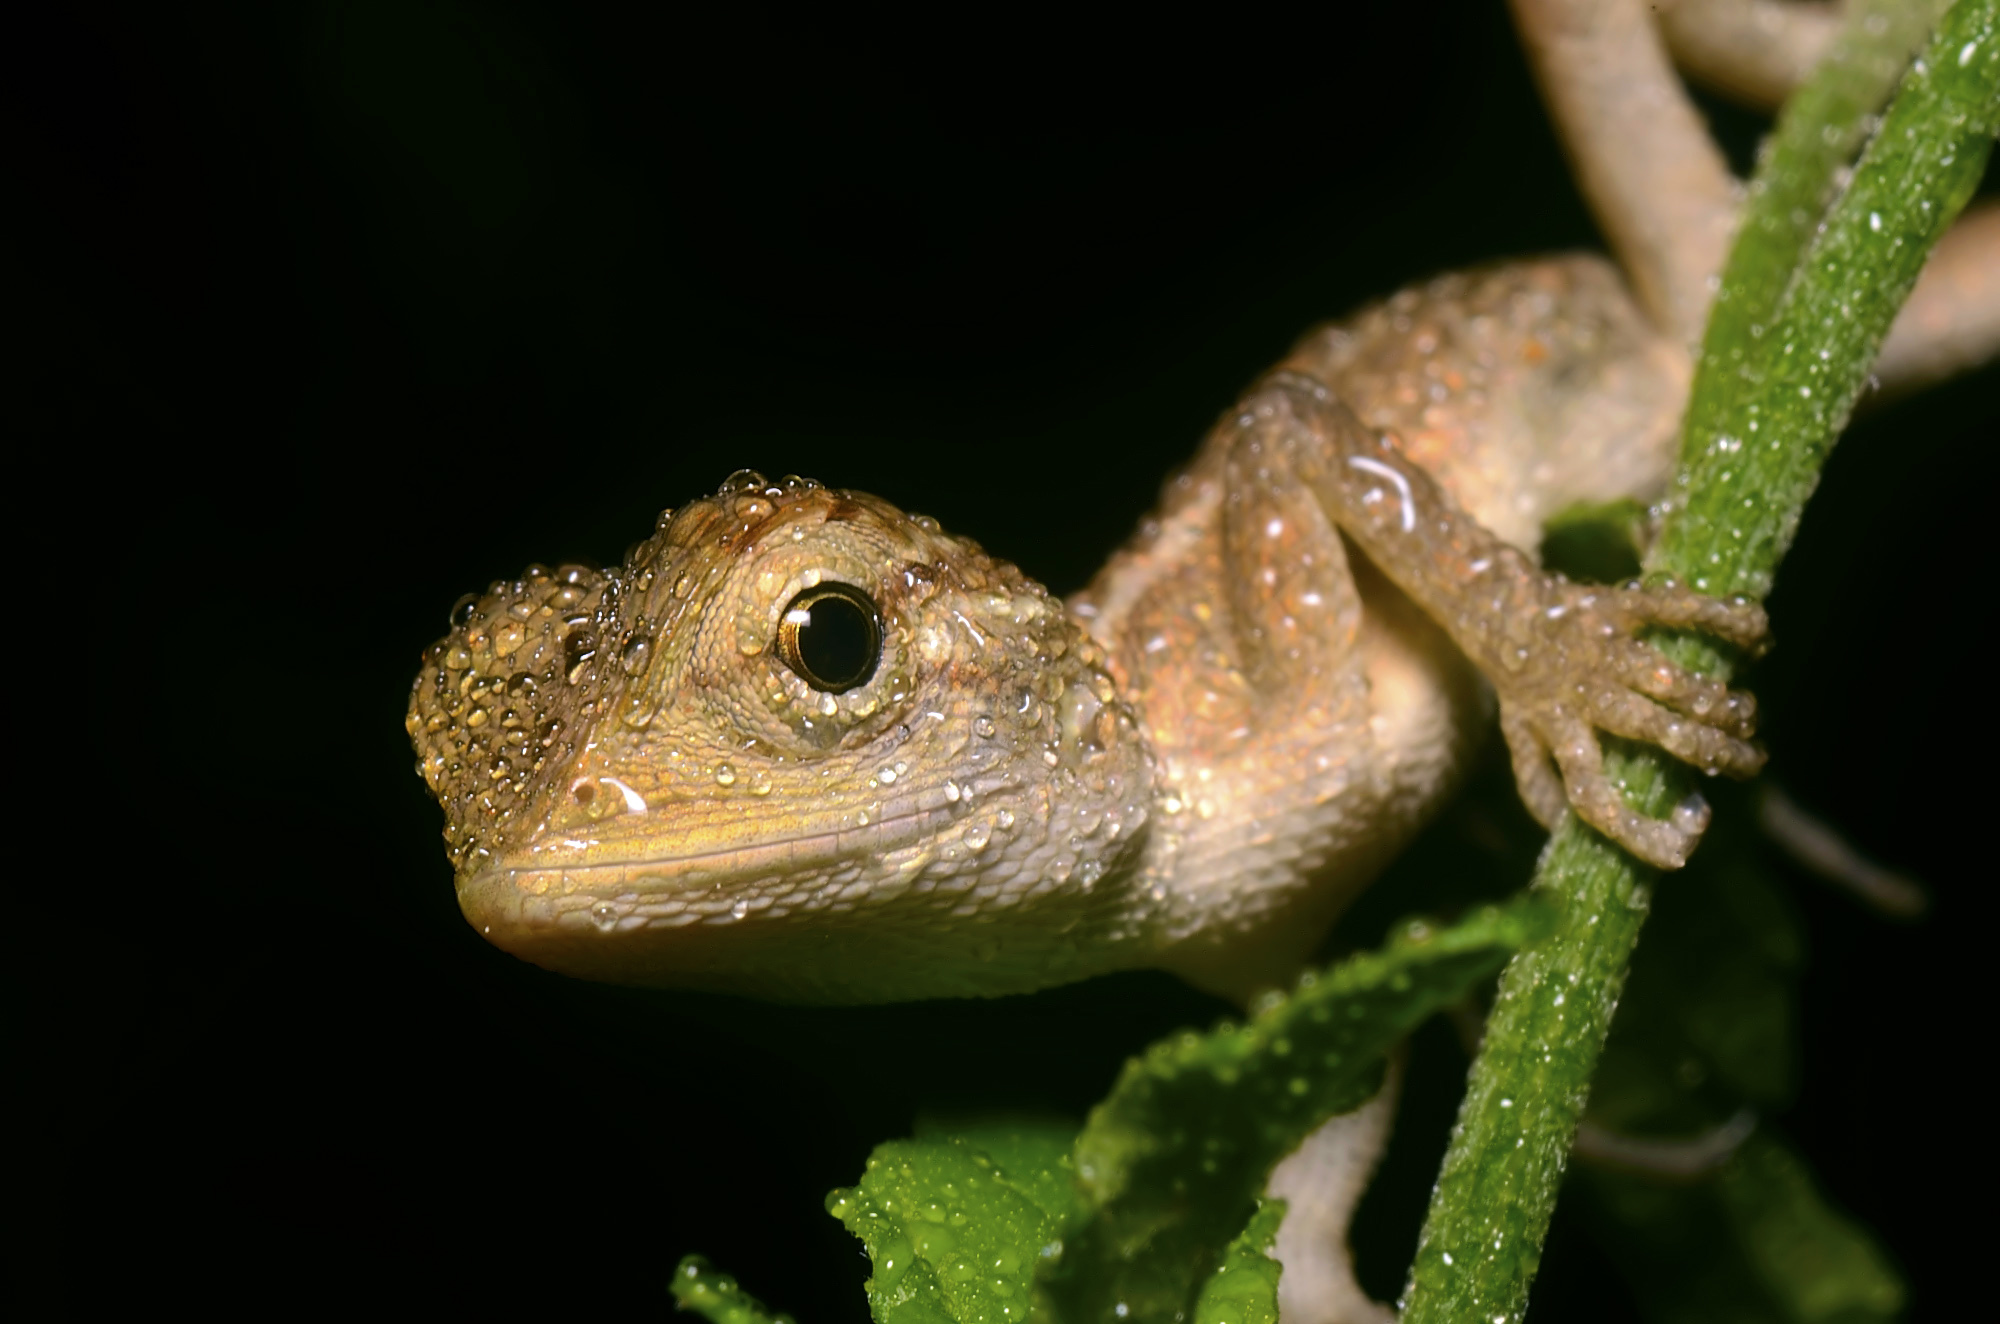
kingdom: Animalia
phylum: Chordata
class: Squamata
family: Agamidae
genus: Calotes
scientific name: Calotes versicolor
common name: Oriental garden lizard
